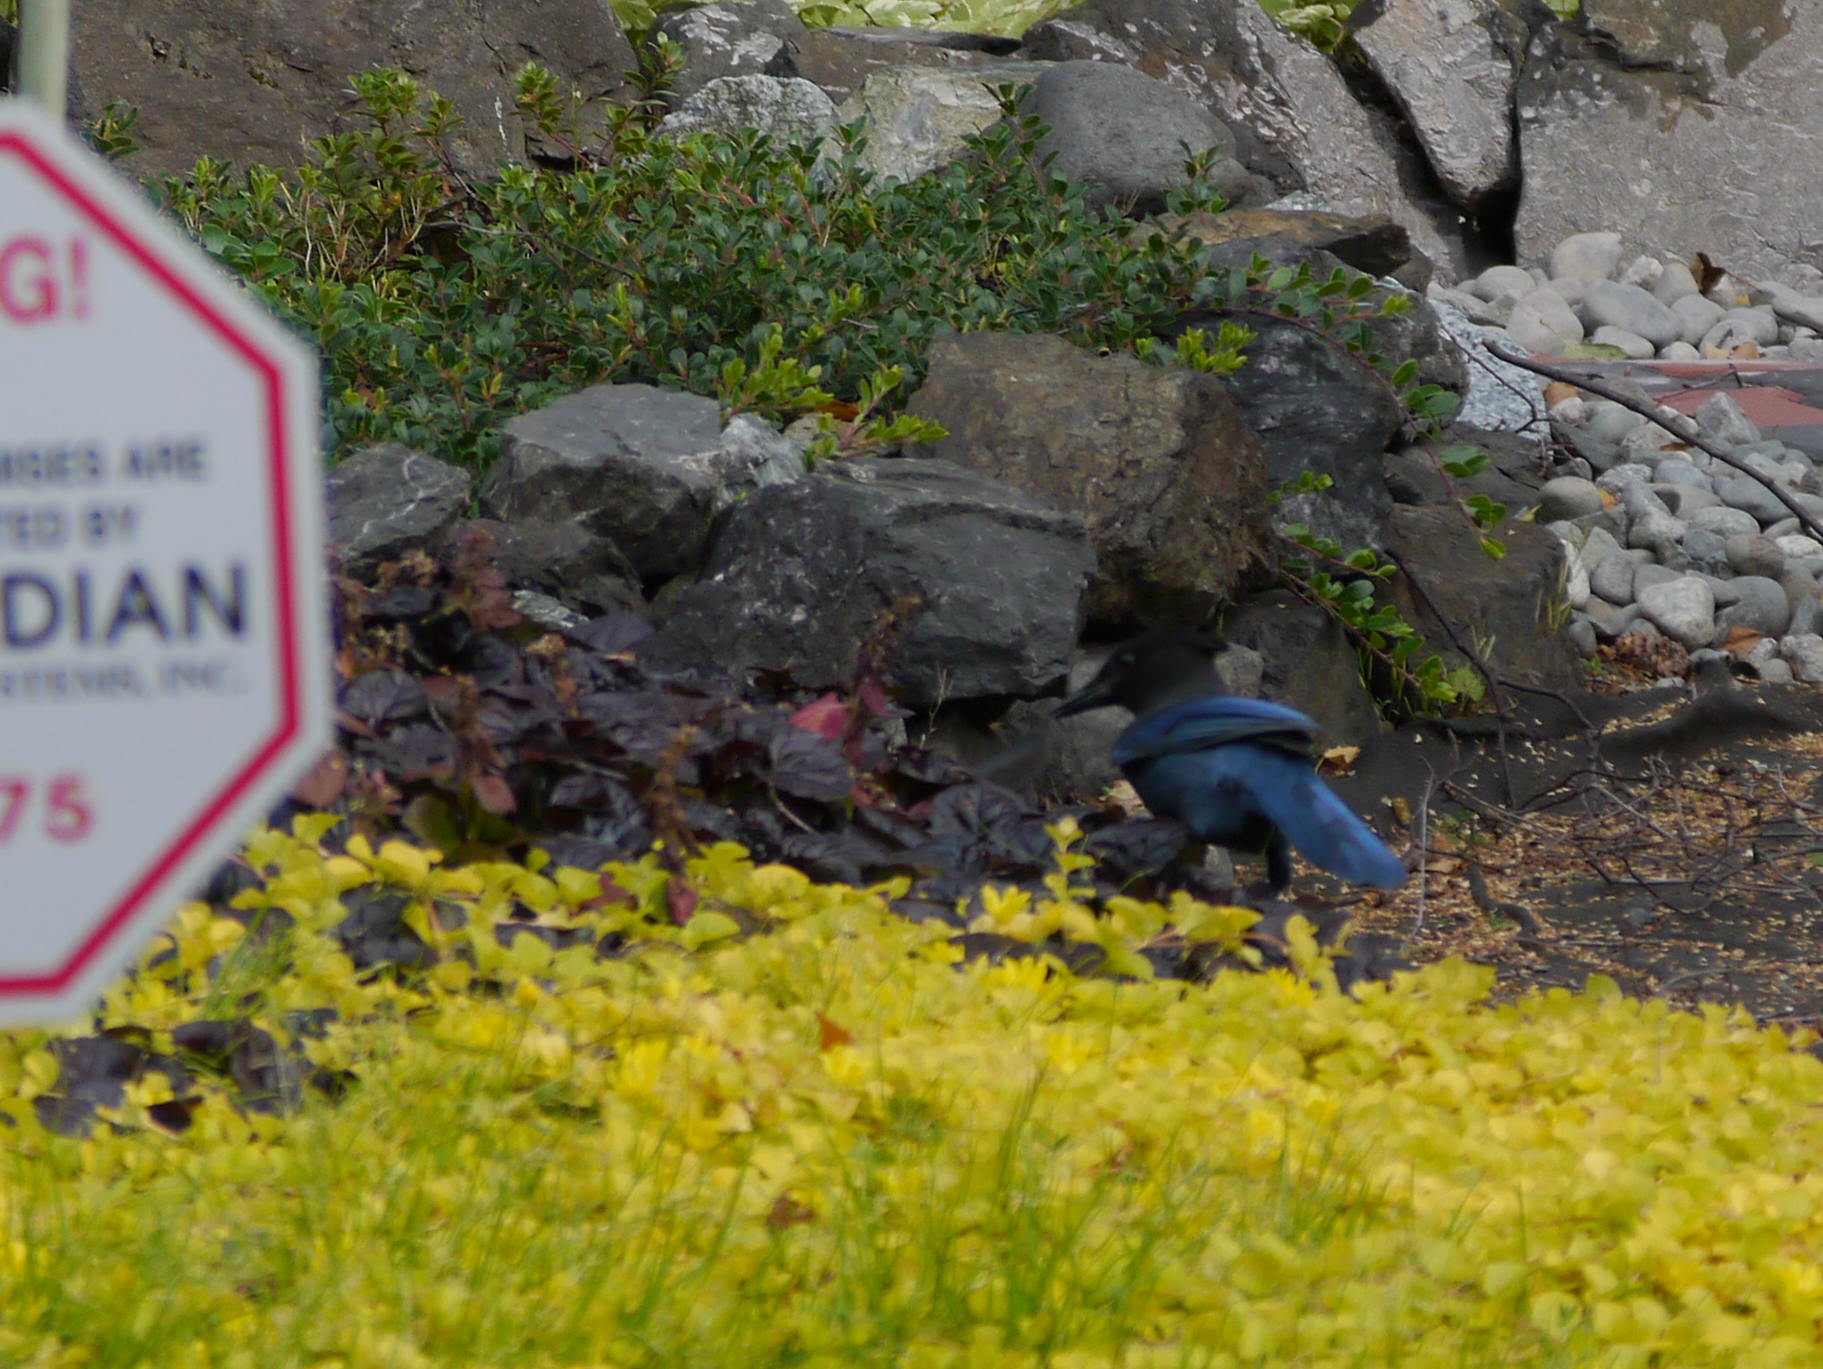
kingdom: Animalia
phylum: Chordata
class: Aves
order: Passeriformes
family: Corvidae
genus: Cyanocitta
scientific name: Cyanocitta stelleri
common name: Steller's jay
